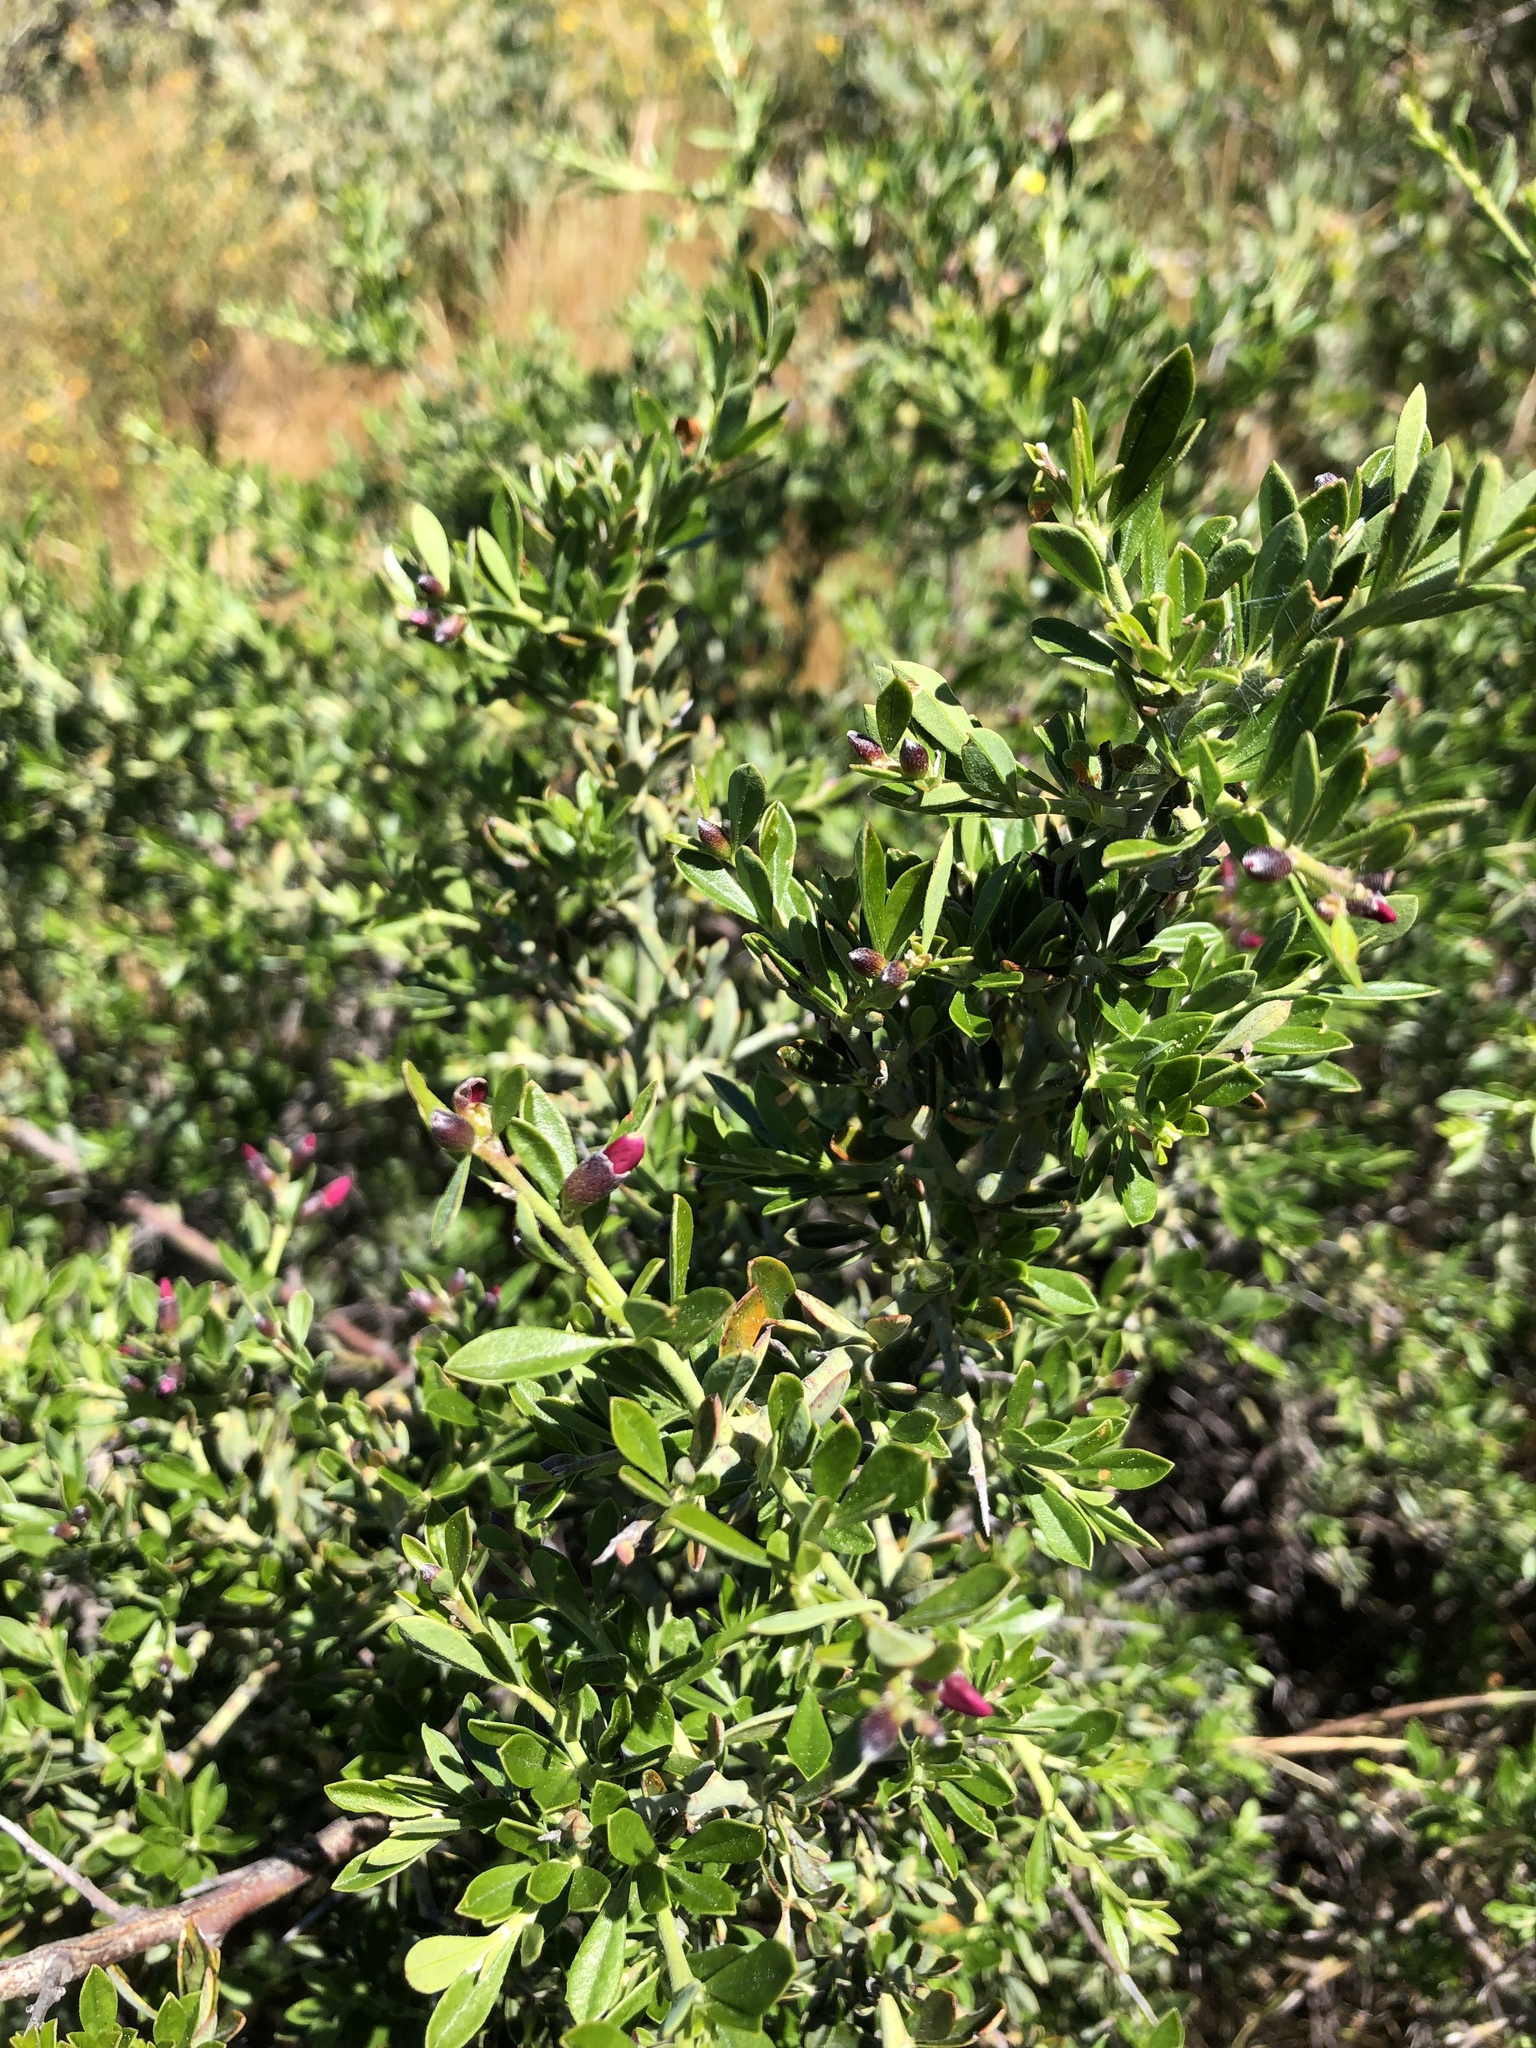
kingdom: Plantae
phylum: Tracheophyta
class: Magnoliopsida
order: Fabales
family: Fabaceae
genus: Pickeringia
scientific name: Pickeringia montana
